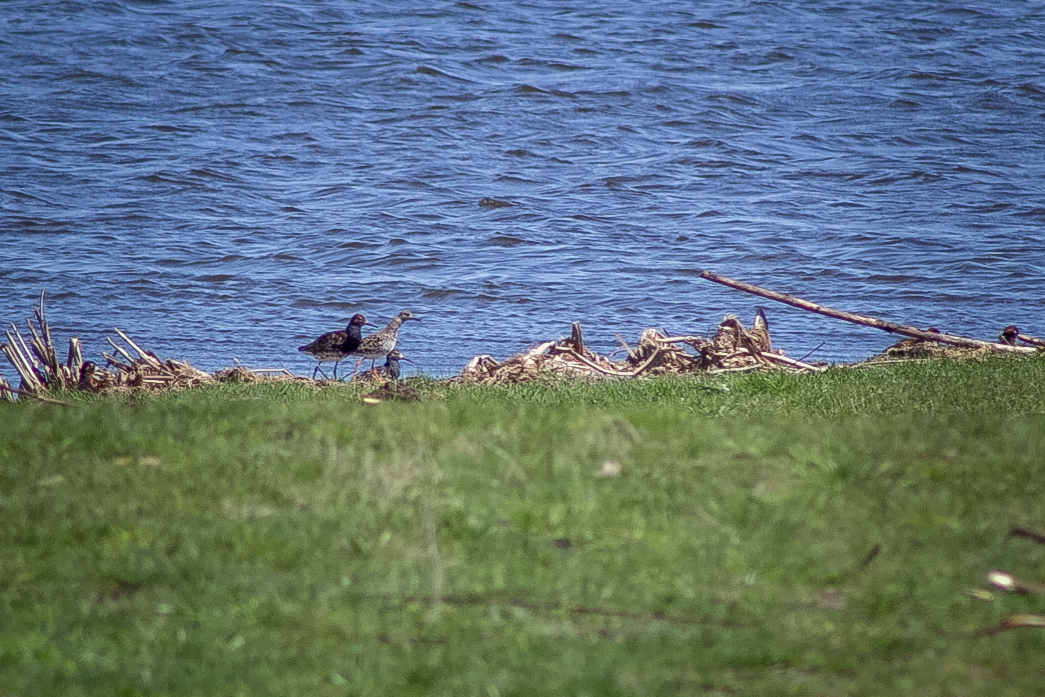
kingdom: Animalia
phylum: Chordata
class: Aves
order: Charadriiformes
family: Scolopacidae
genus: Calidris
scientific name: Calidris pugnax
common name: Ruff
